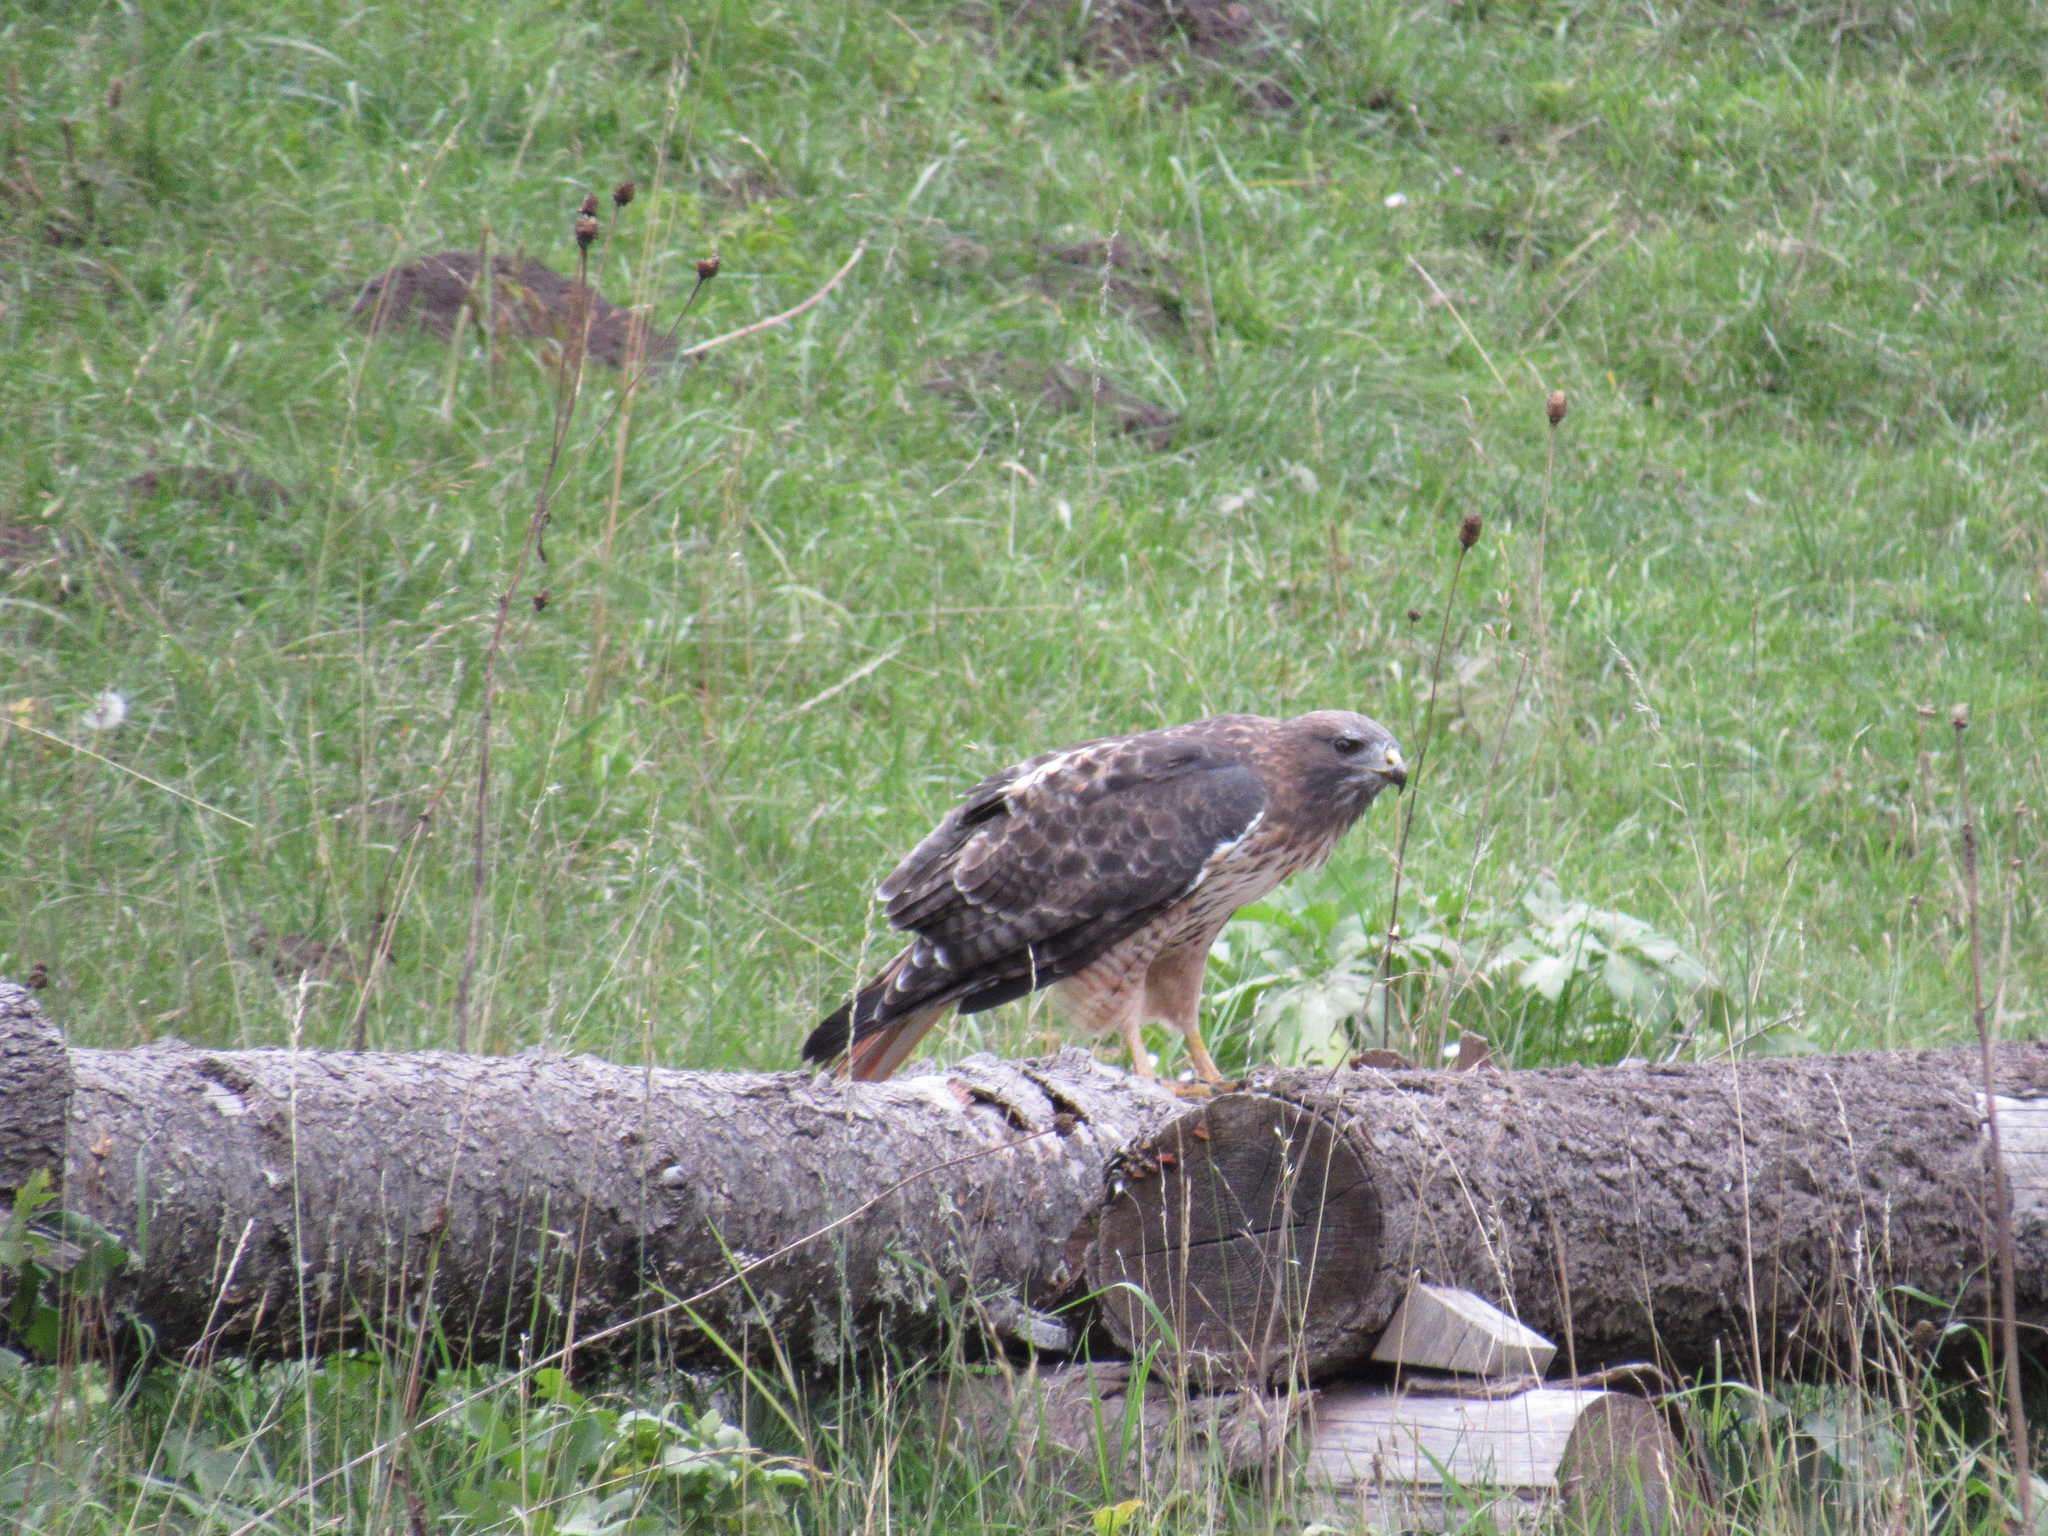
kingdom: Animalia
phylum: Chordata
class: Aves
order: Accipitriformes
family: Accipitridae
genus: Buteo
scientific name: Buteo jamaicensis
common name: Red-tailed hawk
